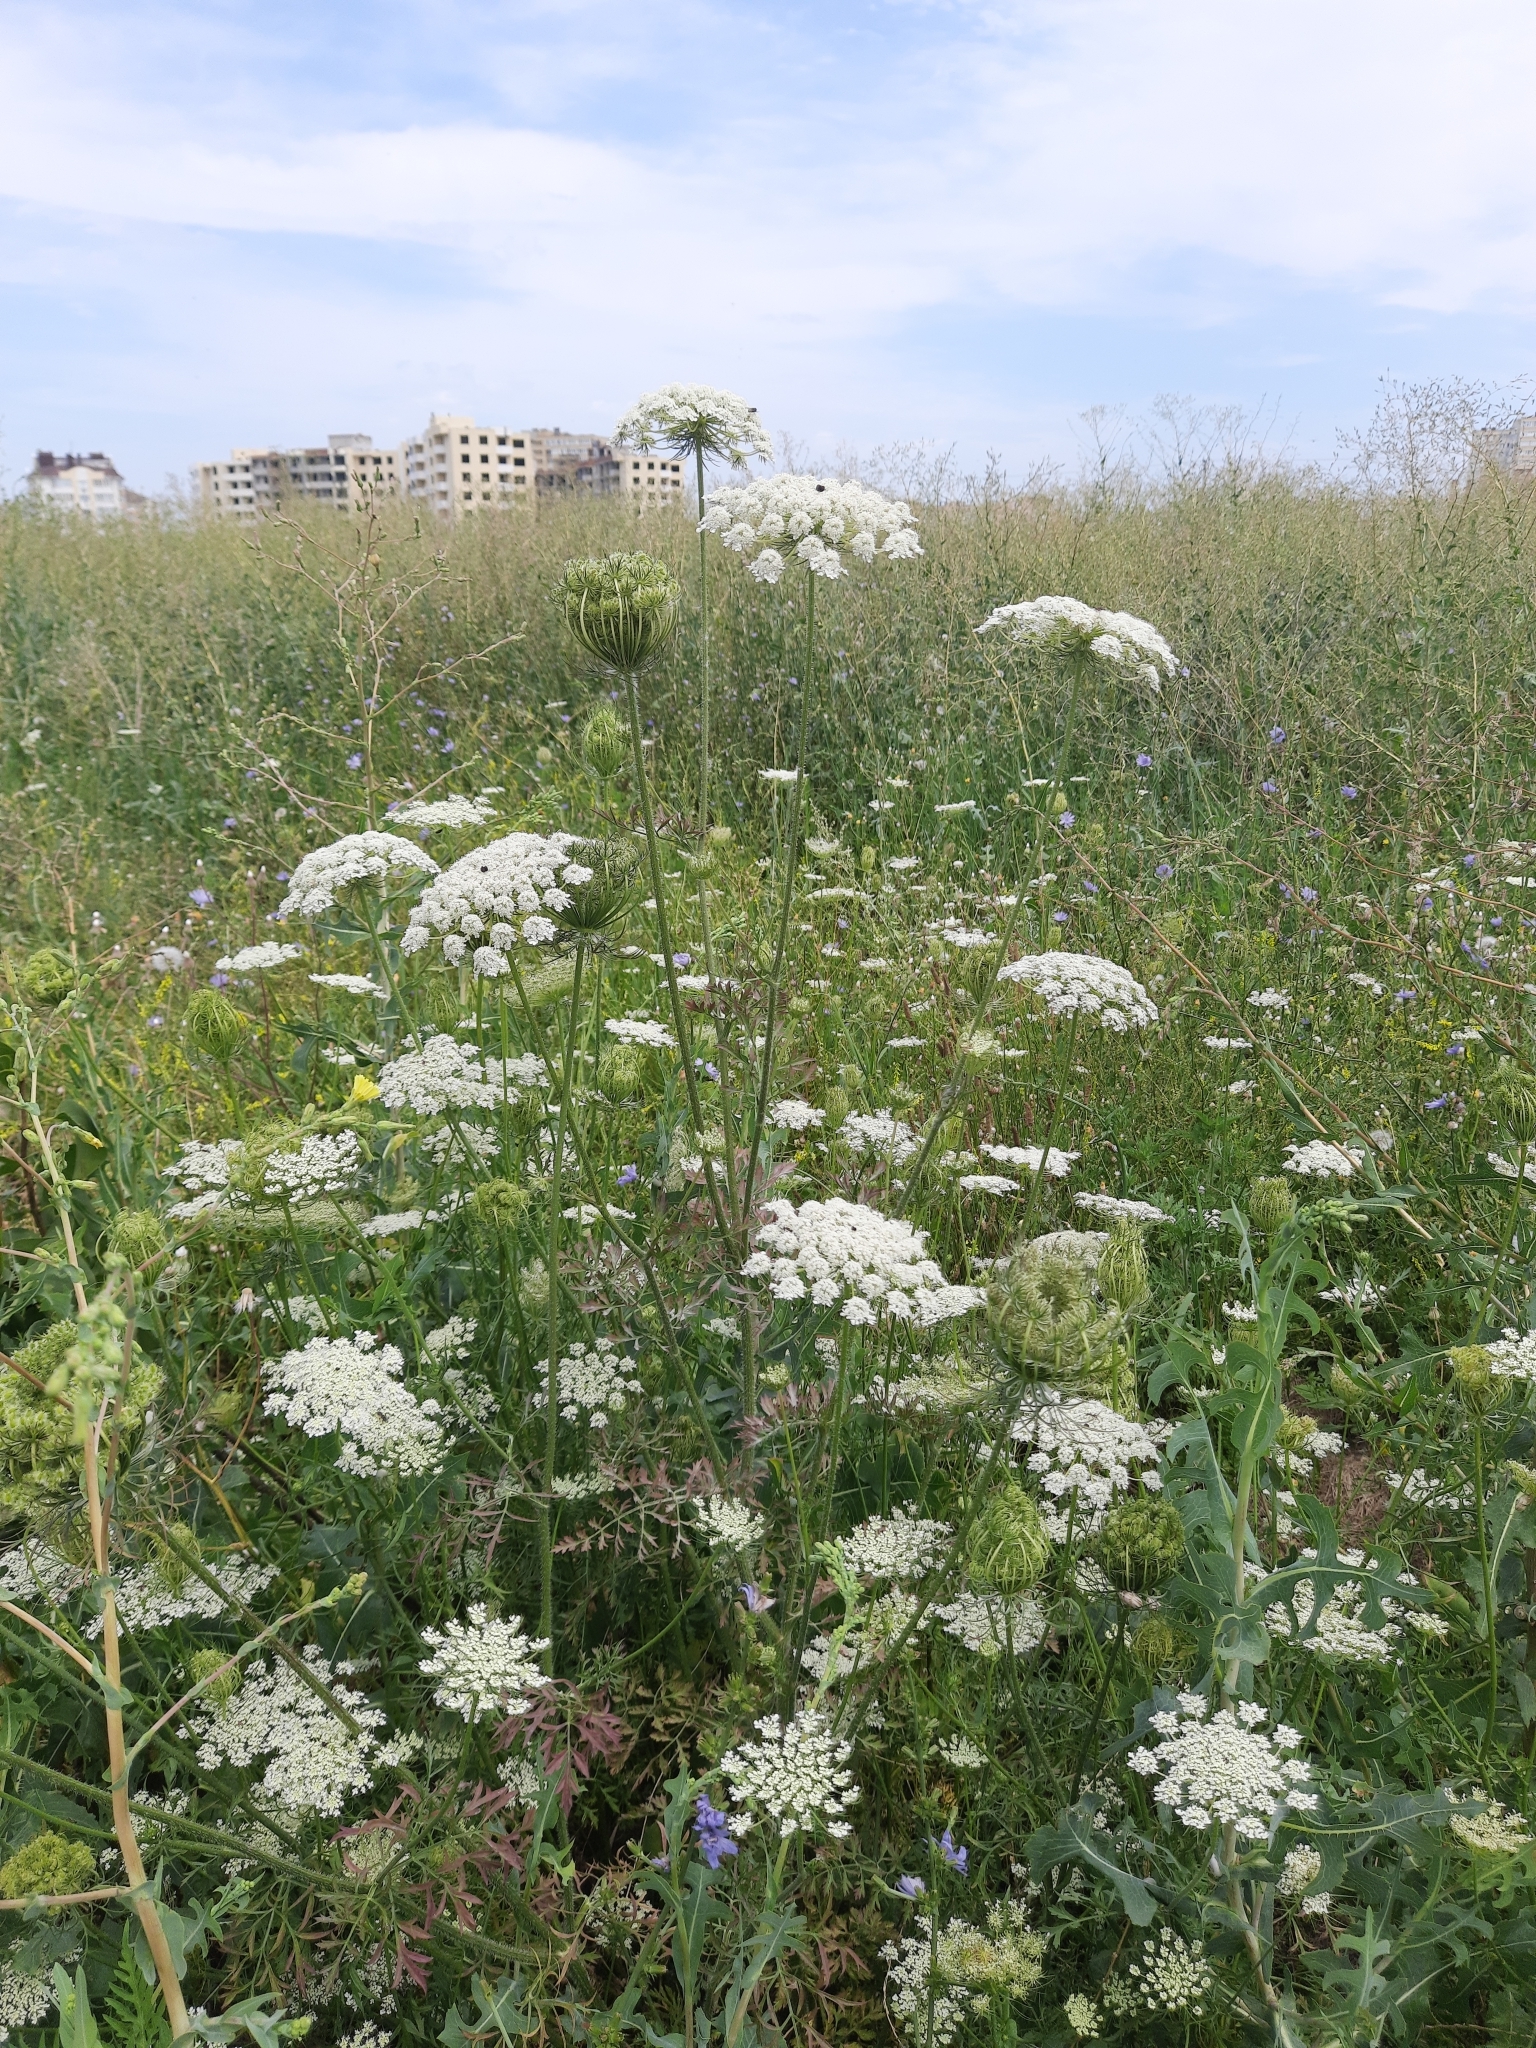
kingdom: Plantae
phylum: Tracheophyta
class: Magnoliopsida
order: Apiales
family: Apiaceae
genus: Daucus
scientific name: Daucus carota
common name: Wild carrot
